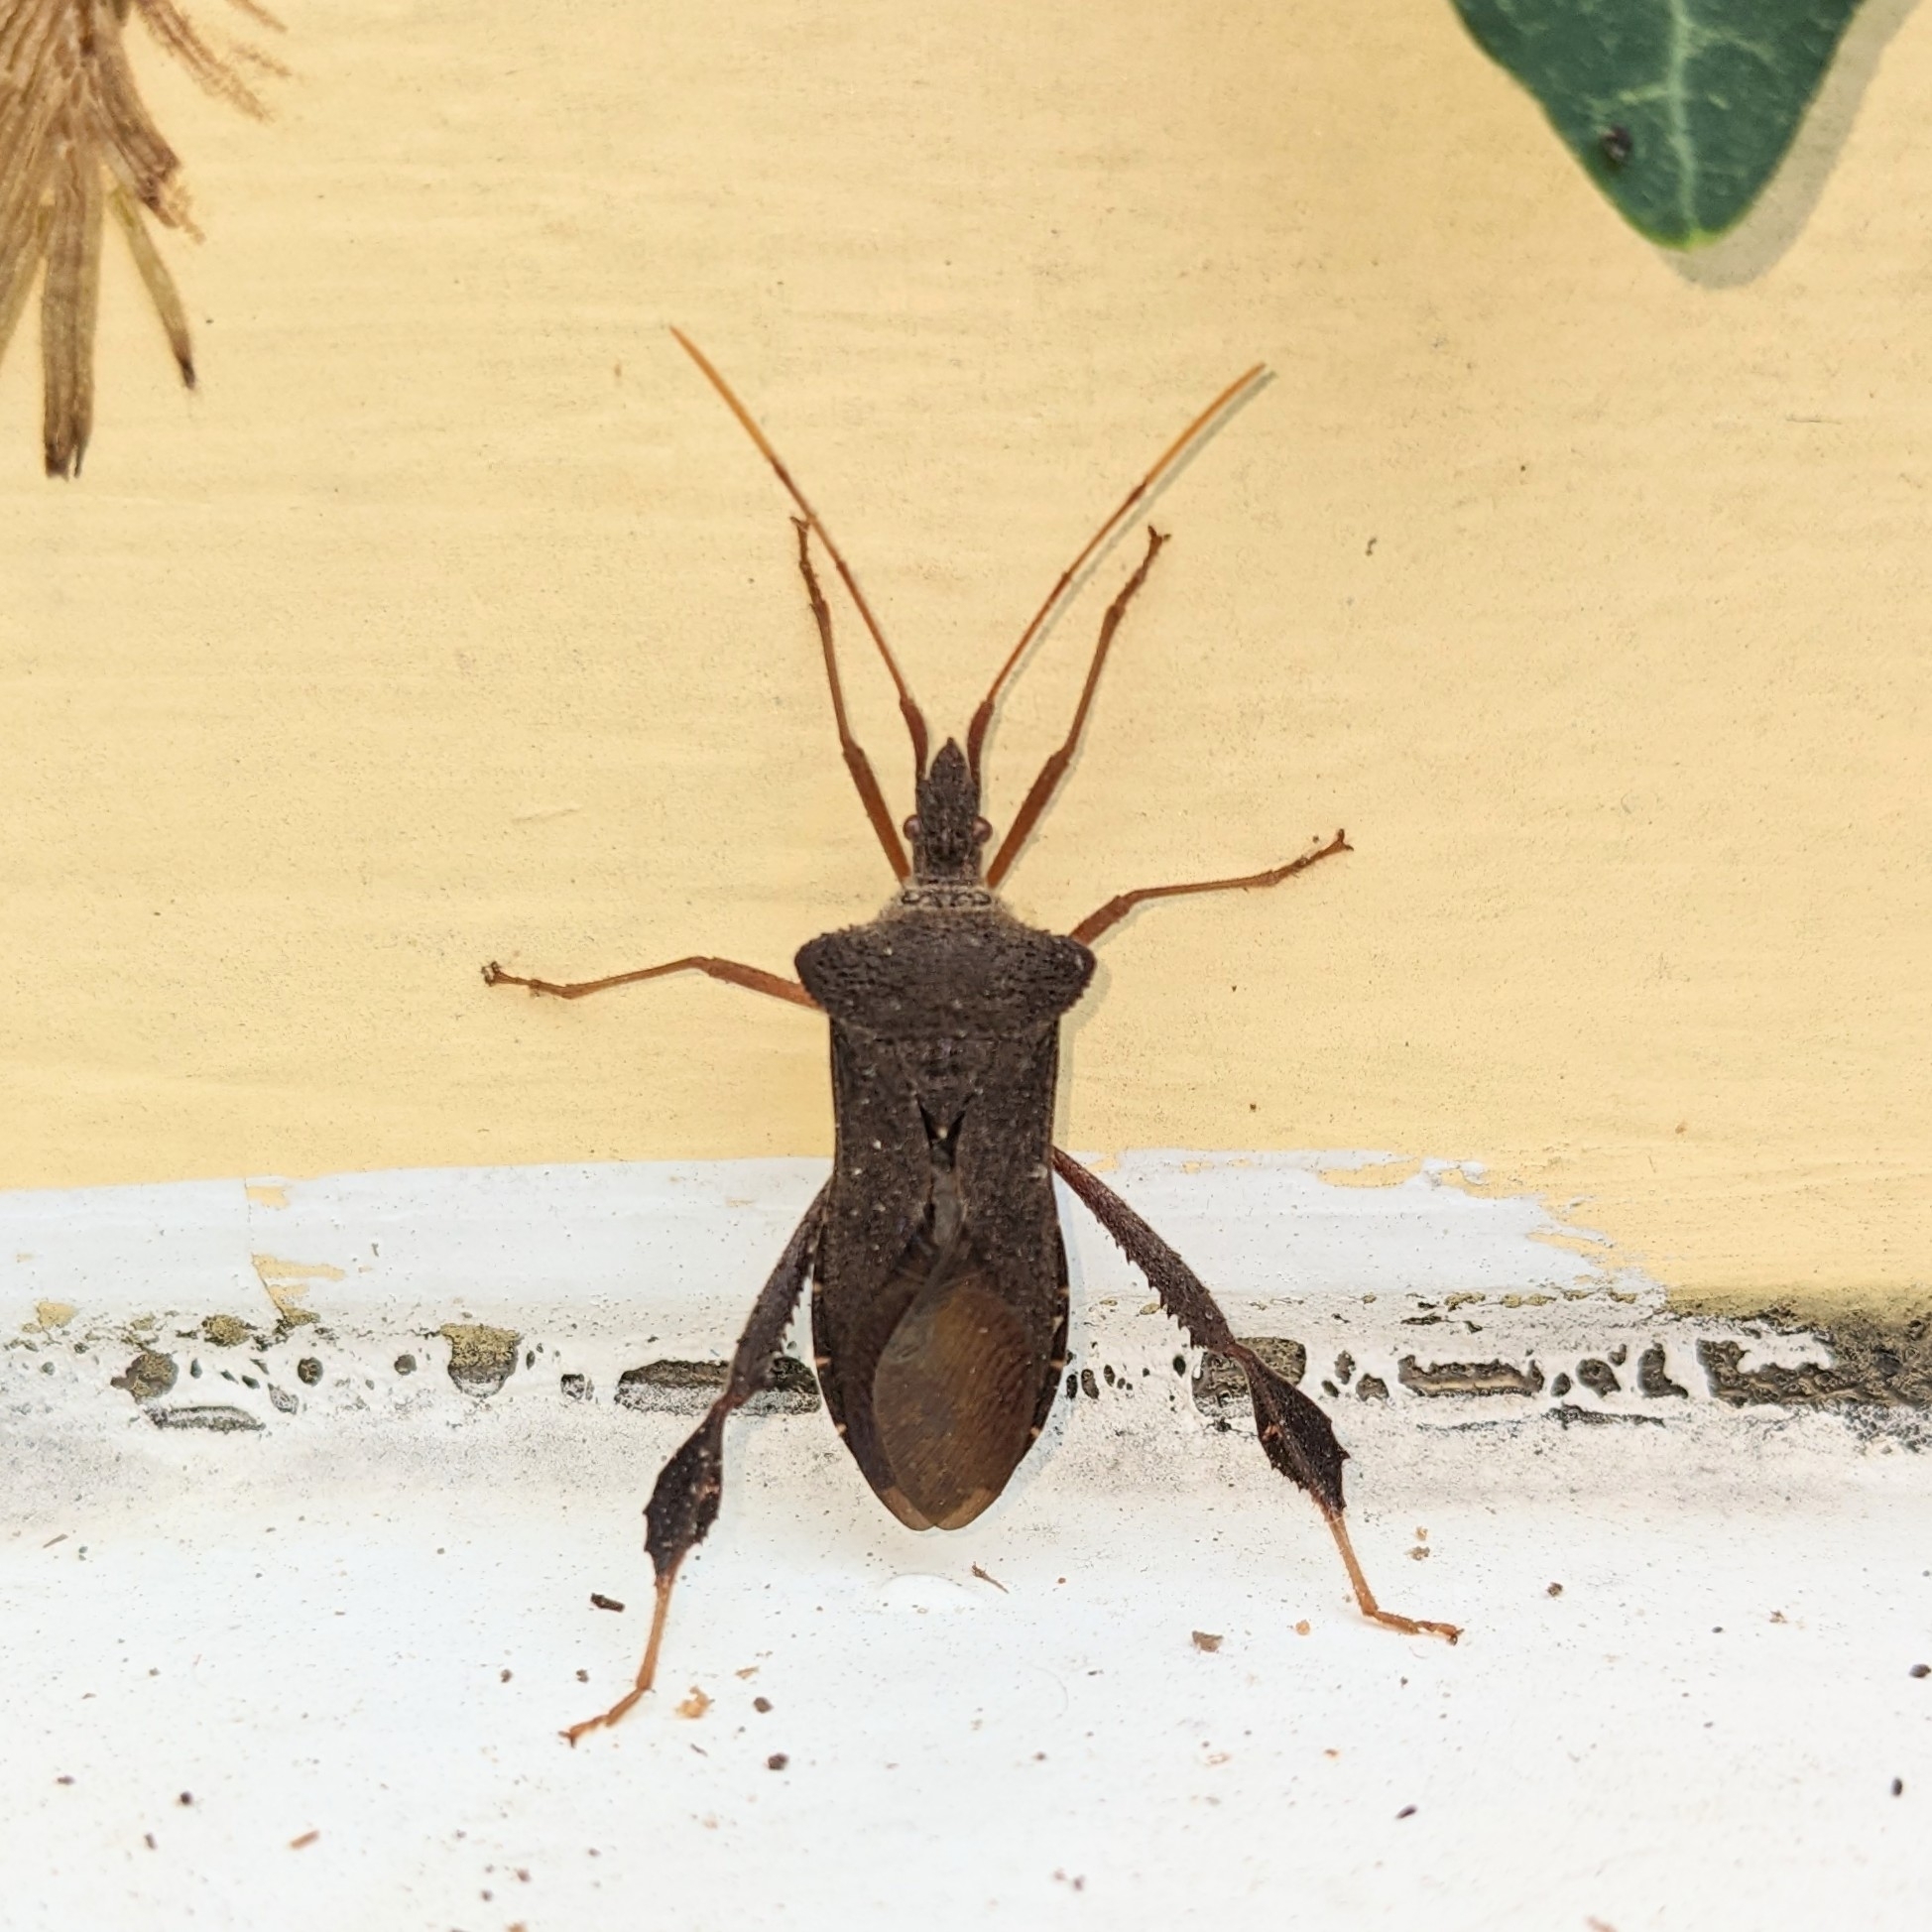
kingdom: Animalia
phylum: Arthropoda
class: Insecta
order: Hemiptera
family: Coreidae
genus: Leptoglossus
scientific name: Leptoglossus fulvicornis
